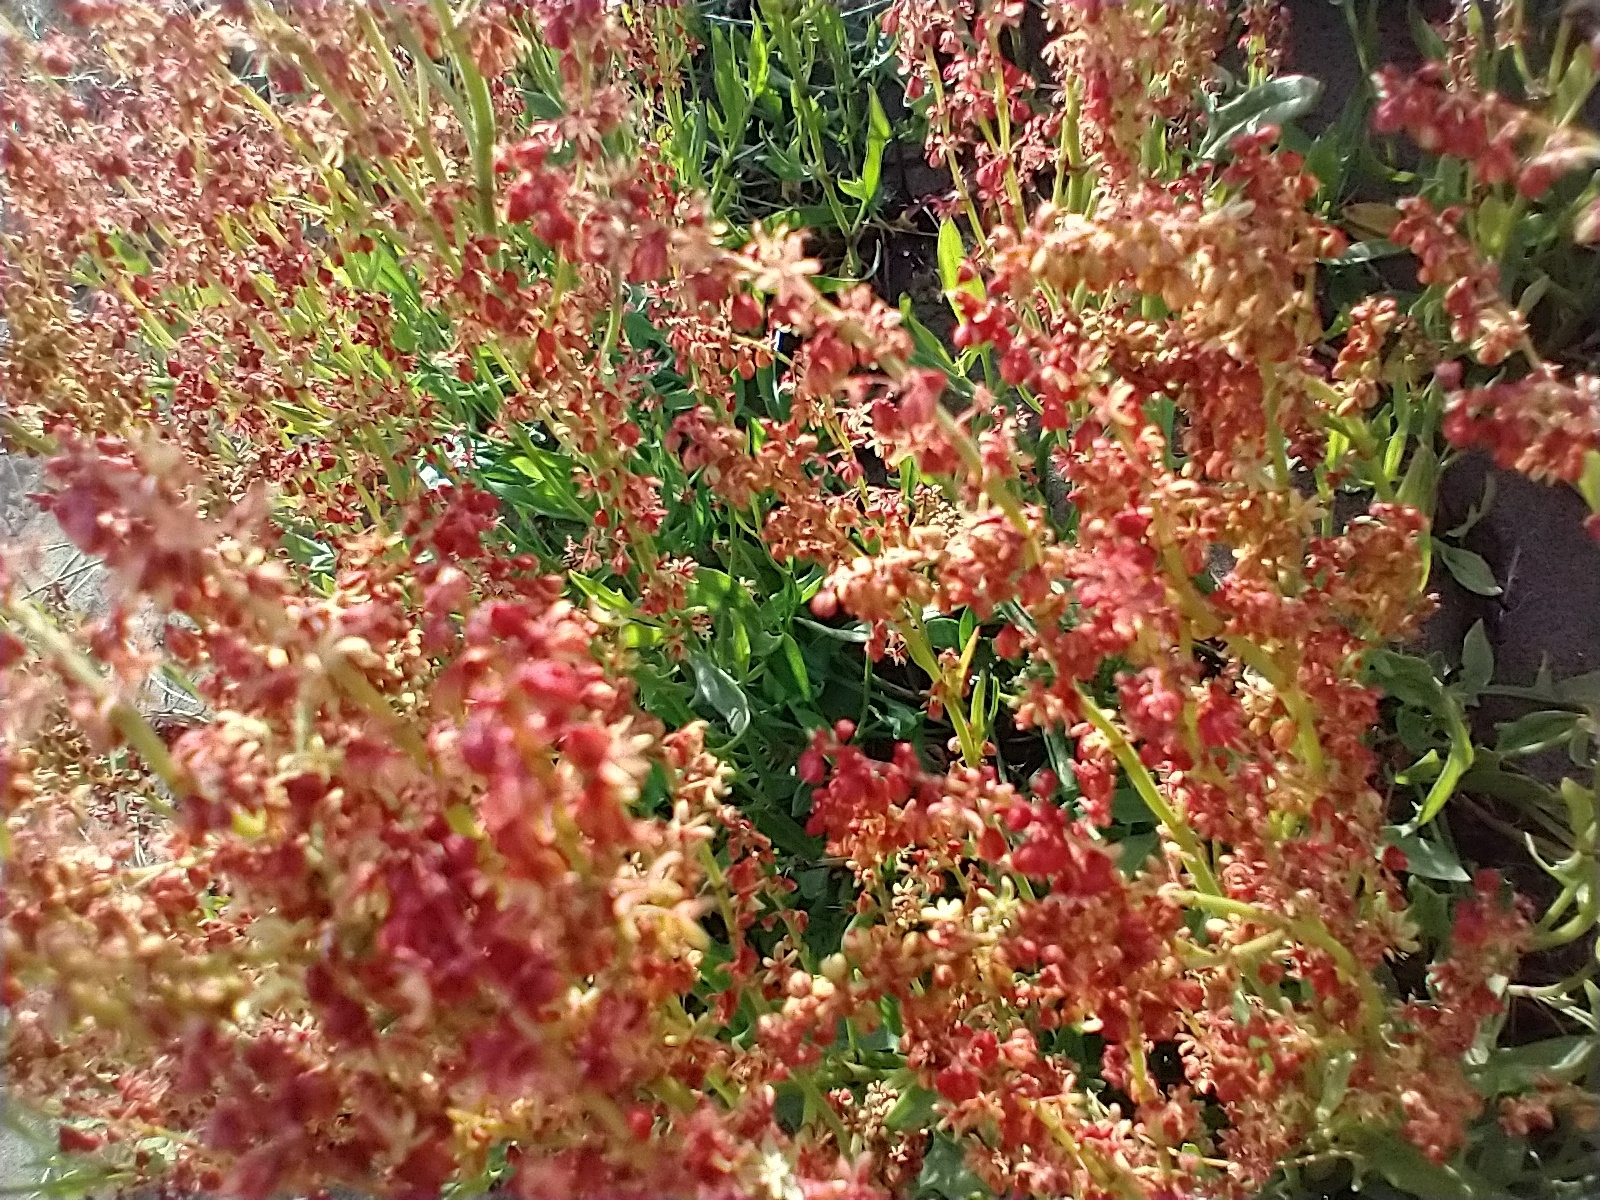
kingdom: Plantae
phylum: Tracheophyta
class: Magnoliopsida
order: Caryophyllales
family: Polygonaceae
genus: Rumex
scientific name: Rumex acetosella
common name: Common sheep sorrel
